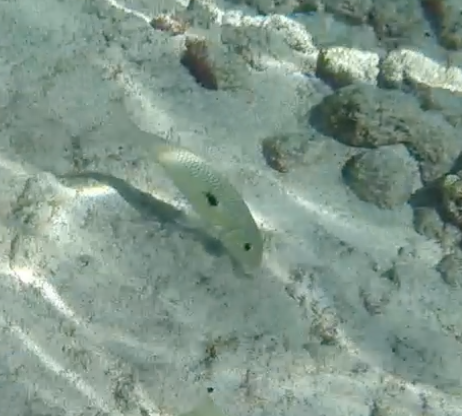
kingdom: Animalia
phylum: Chordata
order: Perciformes
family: Mullidae
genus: Mulloidichthys
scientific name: Mulloidichthys flavolineatus
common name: Yellowstripe goatfish
